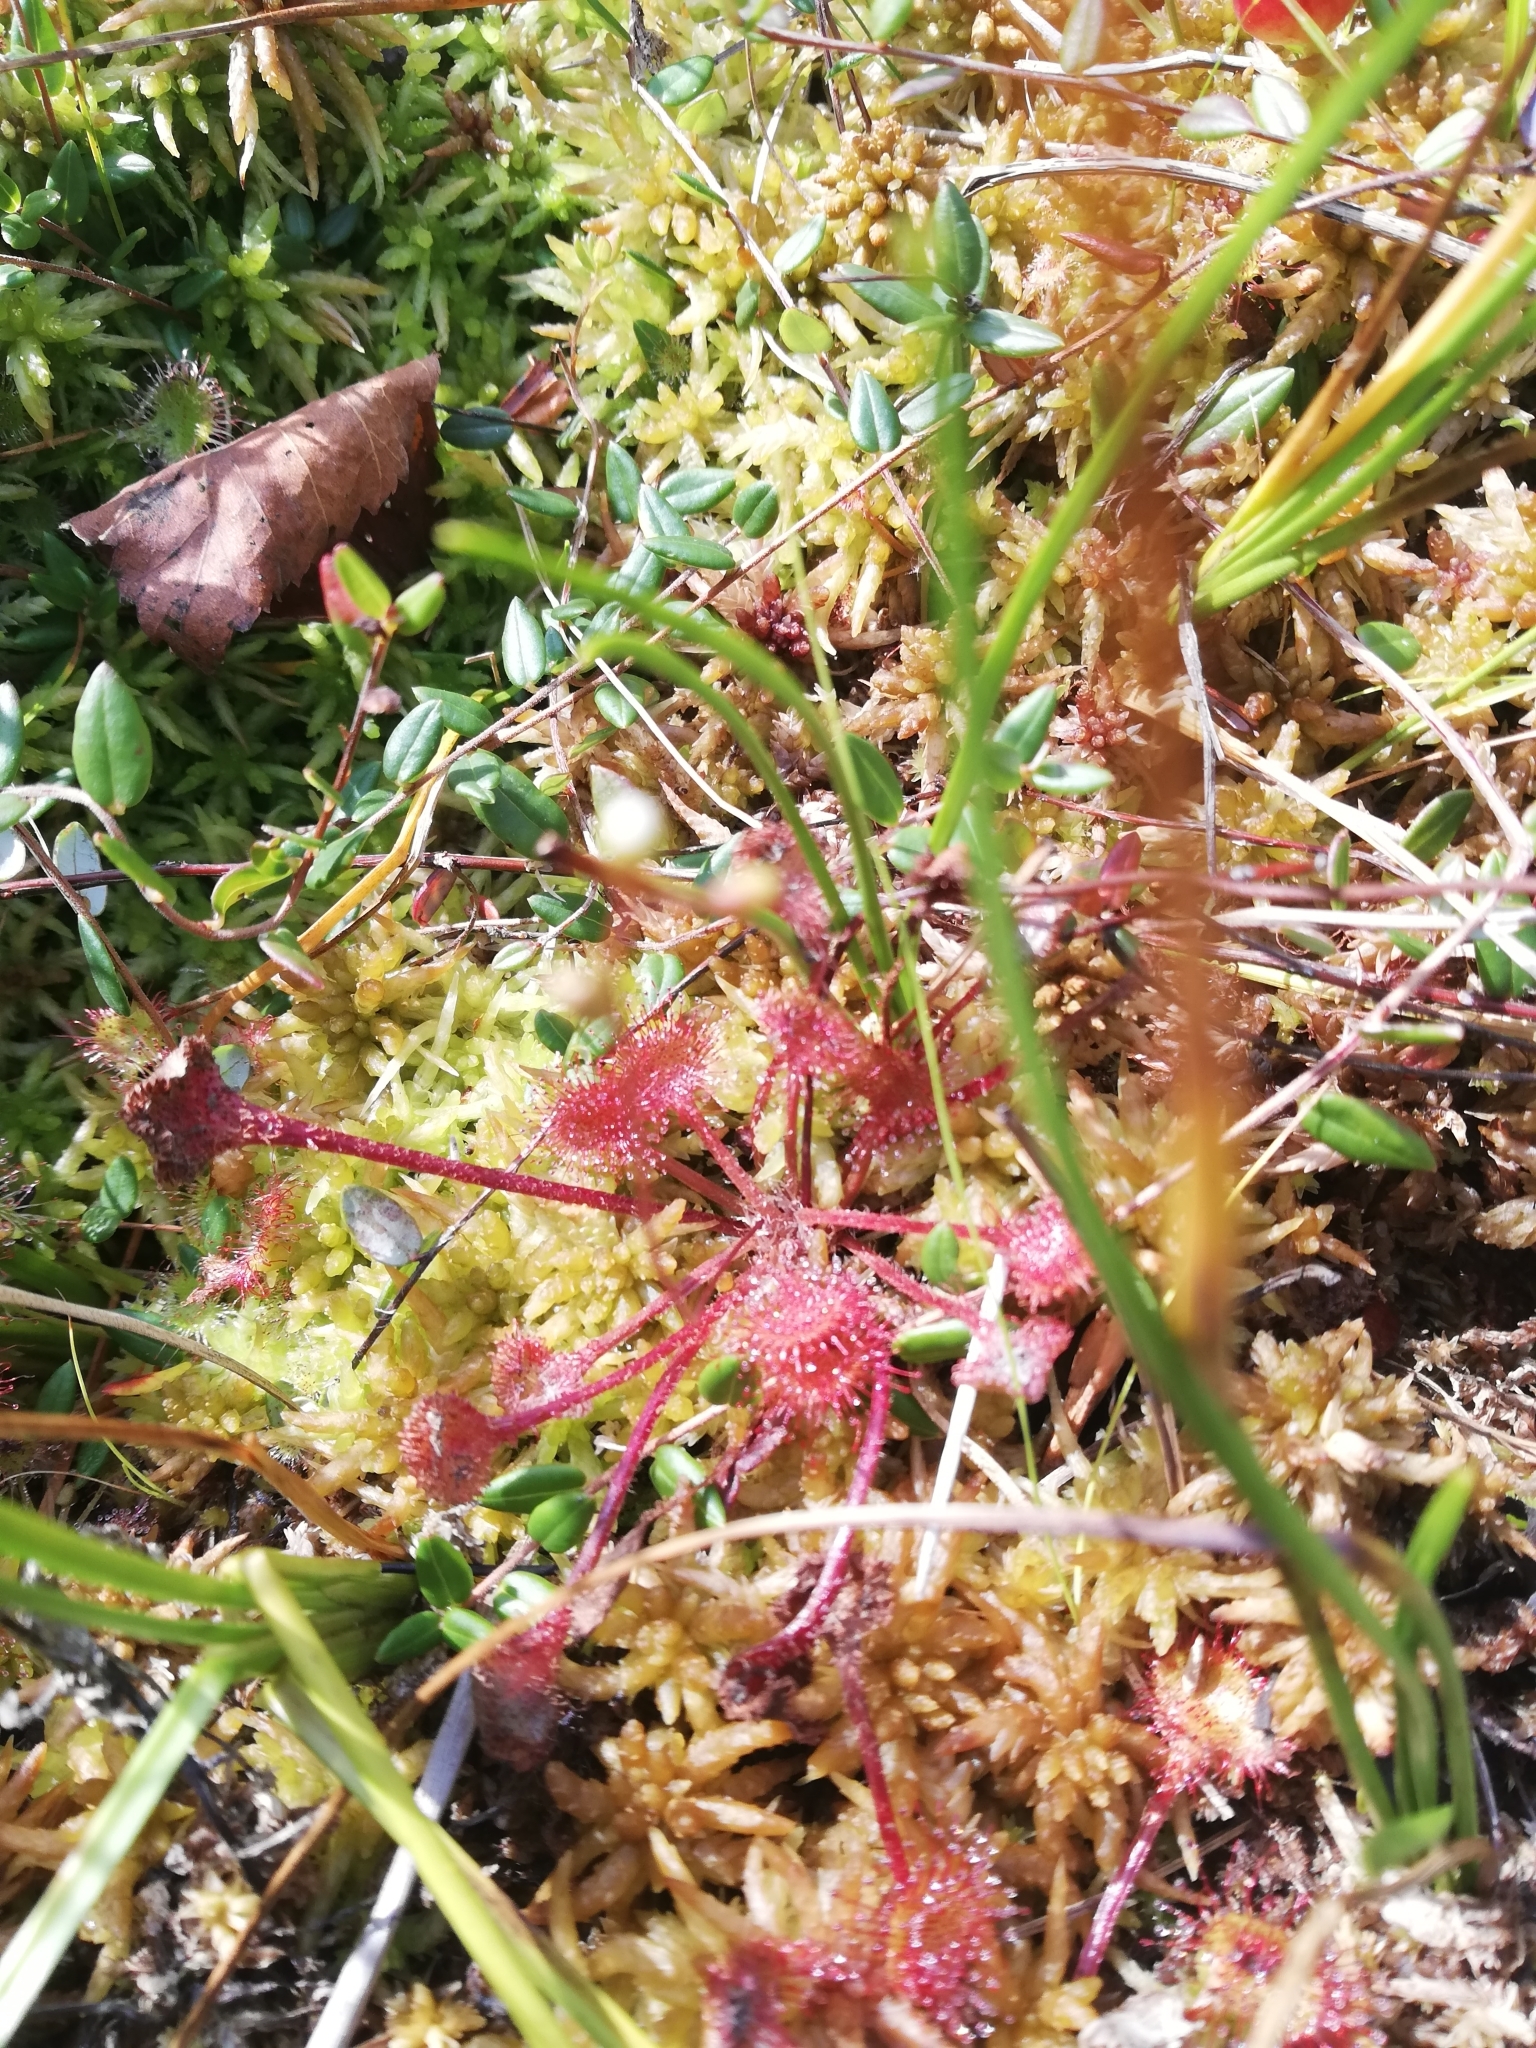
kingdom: Plantae
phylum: Tracheophyta
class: Magnoliopsida
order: Caryophyllales
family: Droseraceae
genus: Drosera
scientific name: Drosera rotundifolia
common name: Round-leaved sundew
